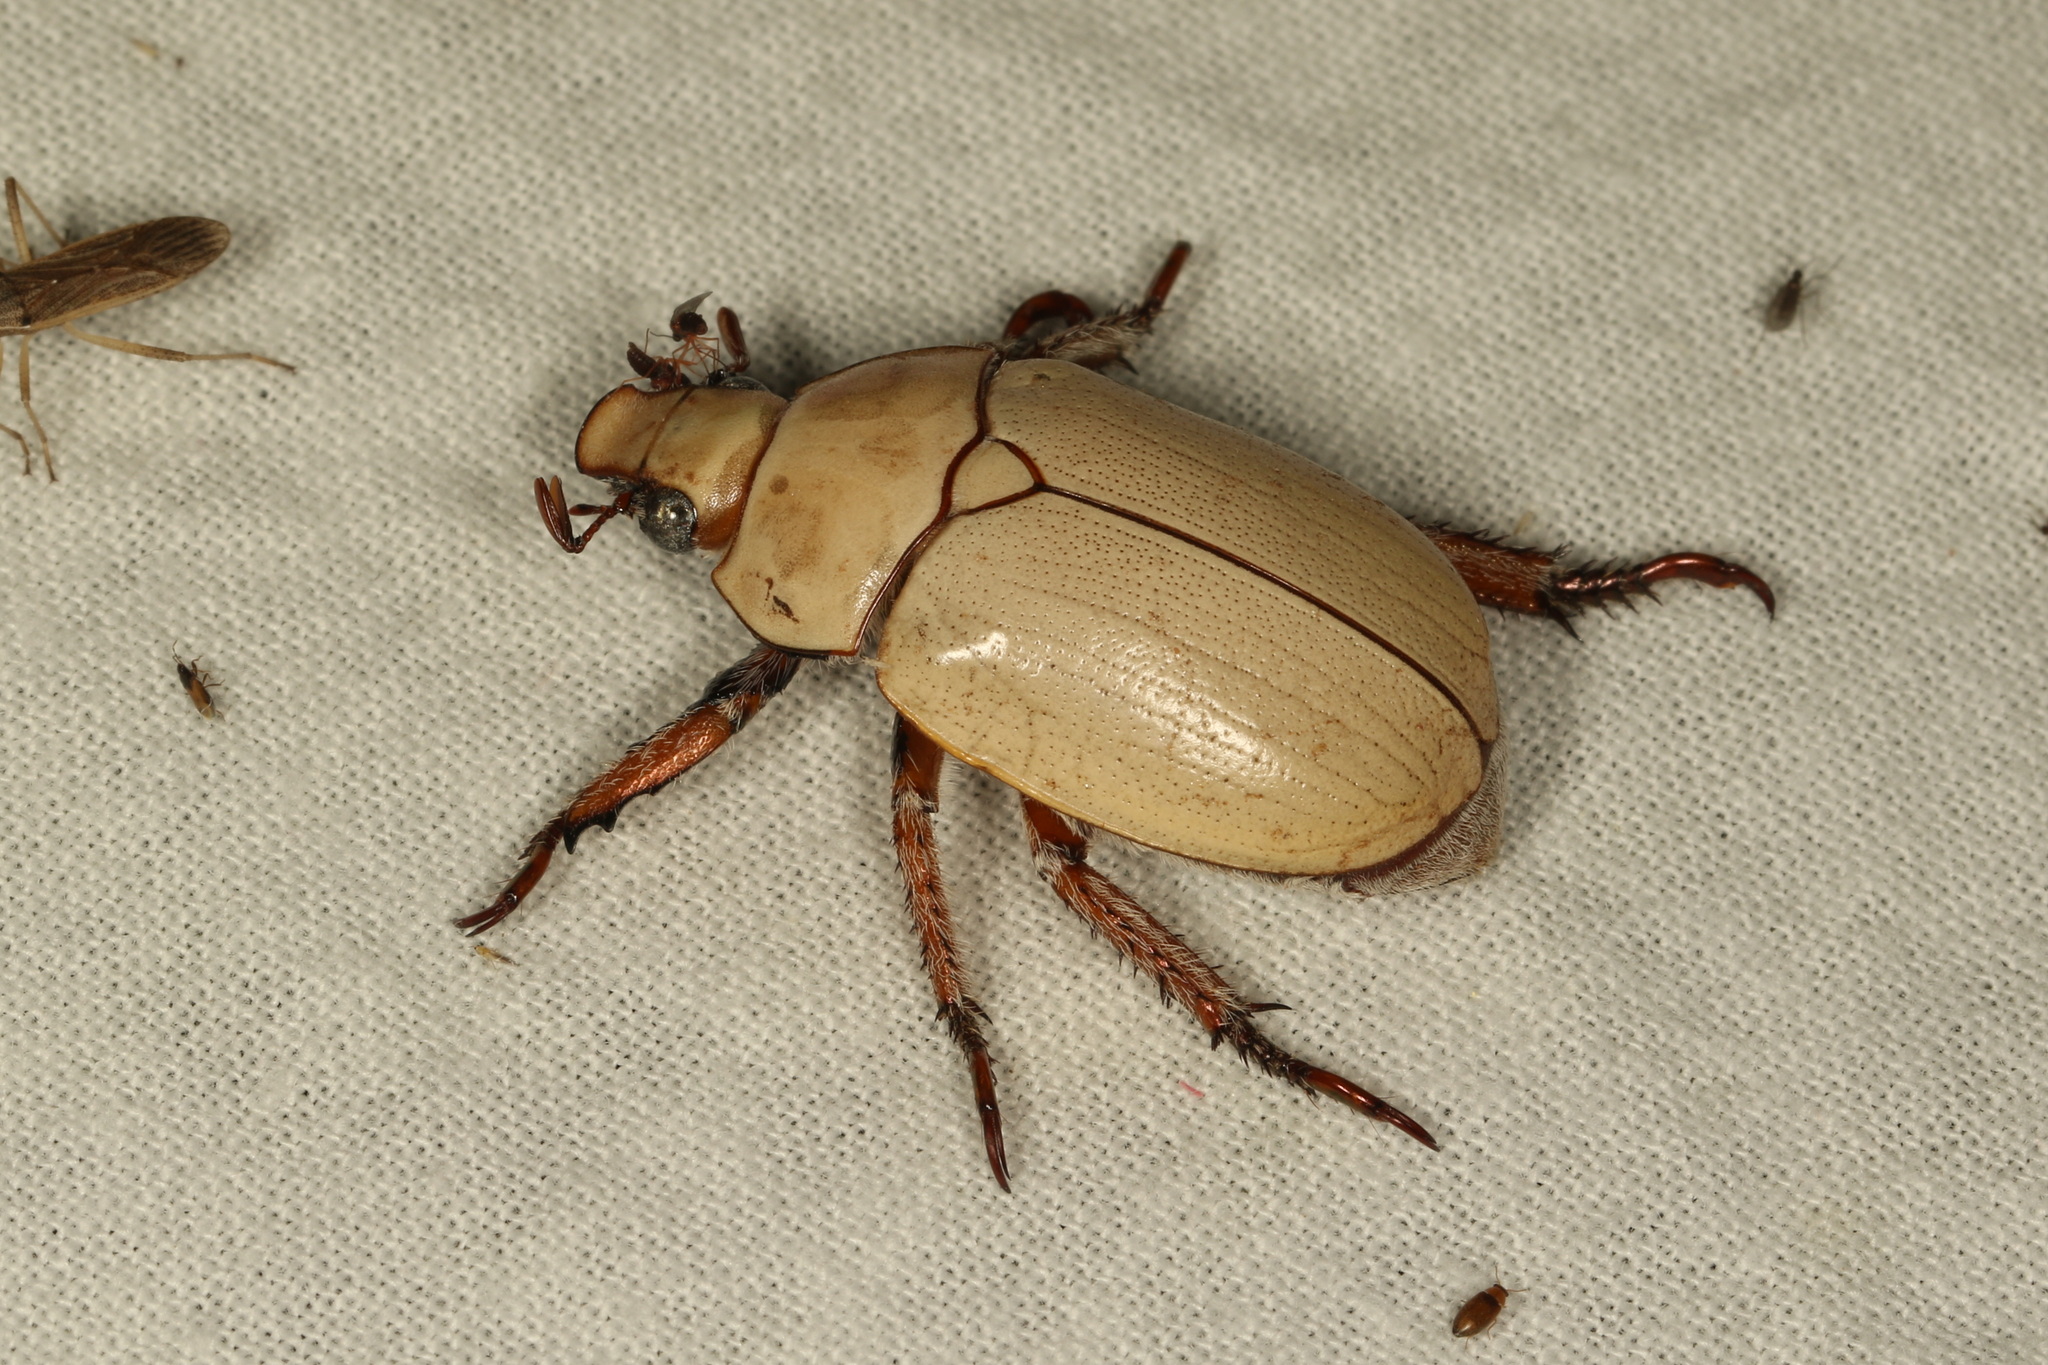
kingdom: Animalia
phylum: Arthropoda
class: Insecta
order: Coleoptera
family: Scarabaeidae
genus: Anoplognathus
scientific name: Anoplognathus macleayi
